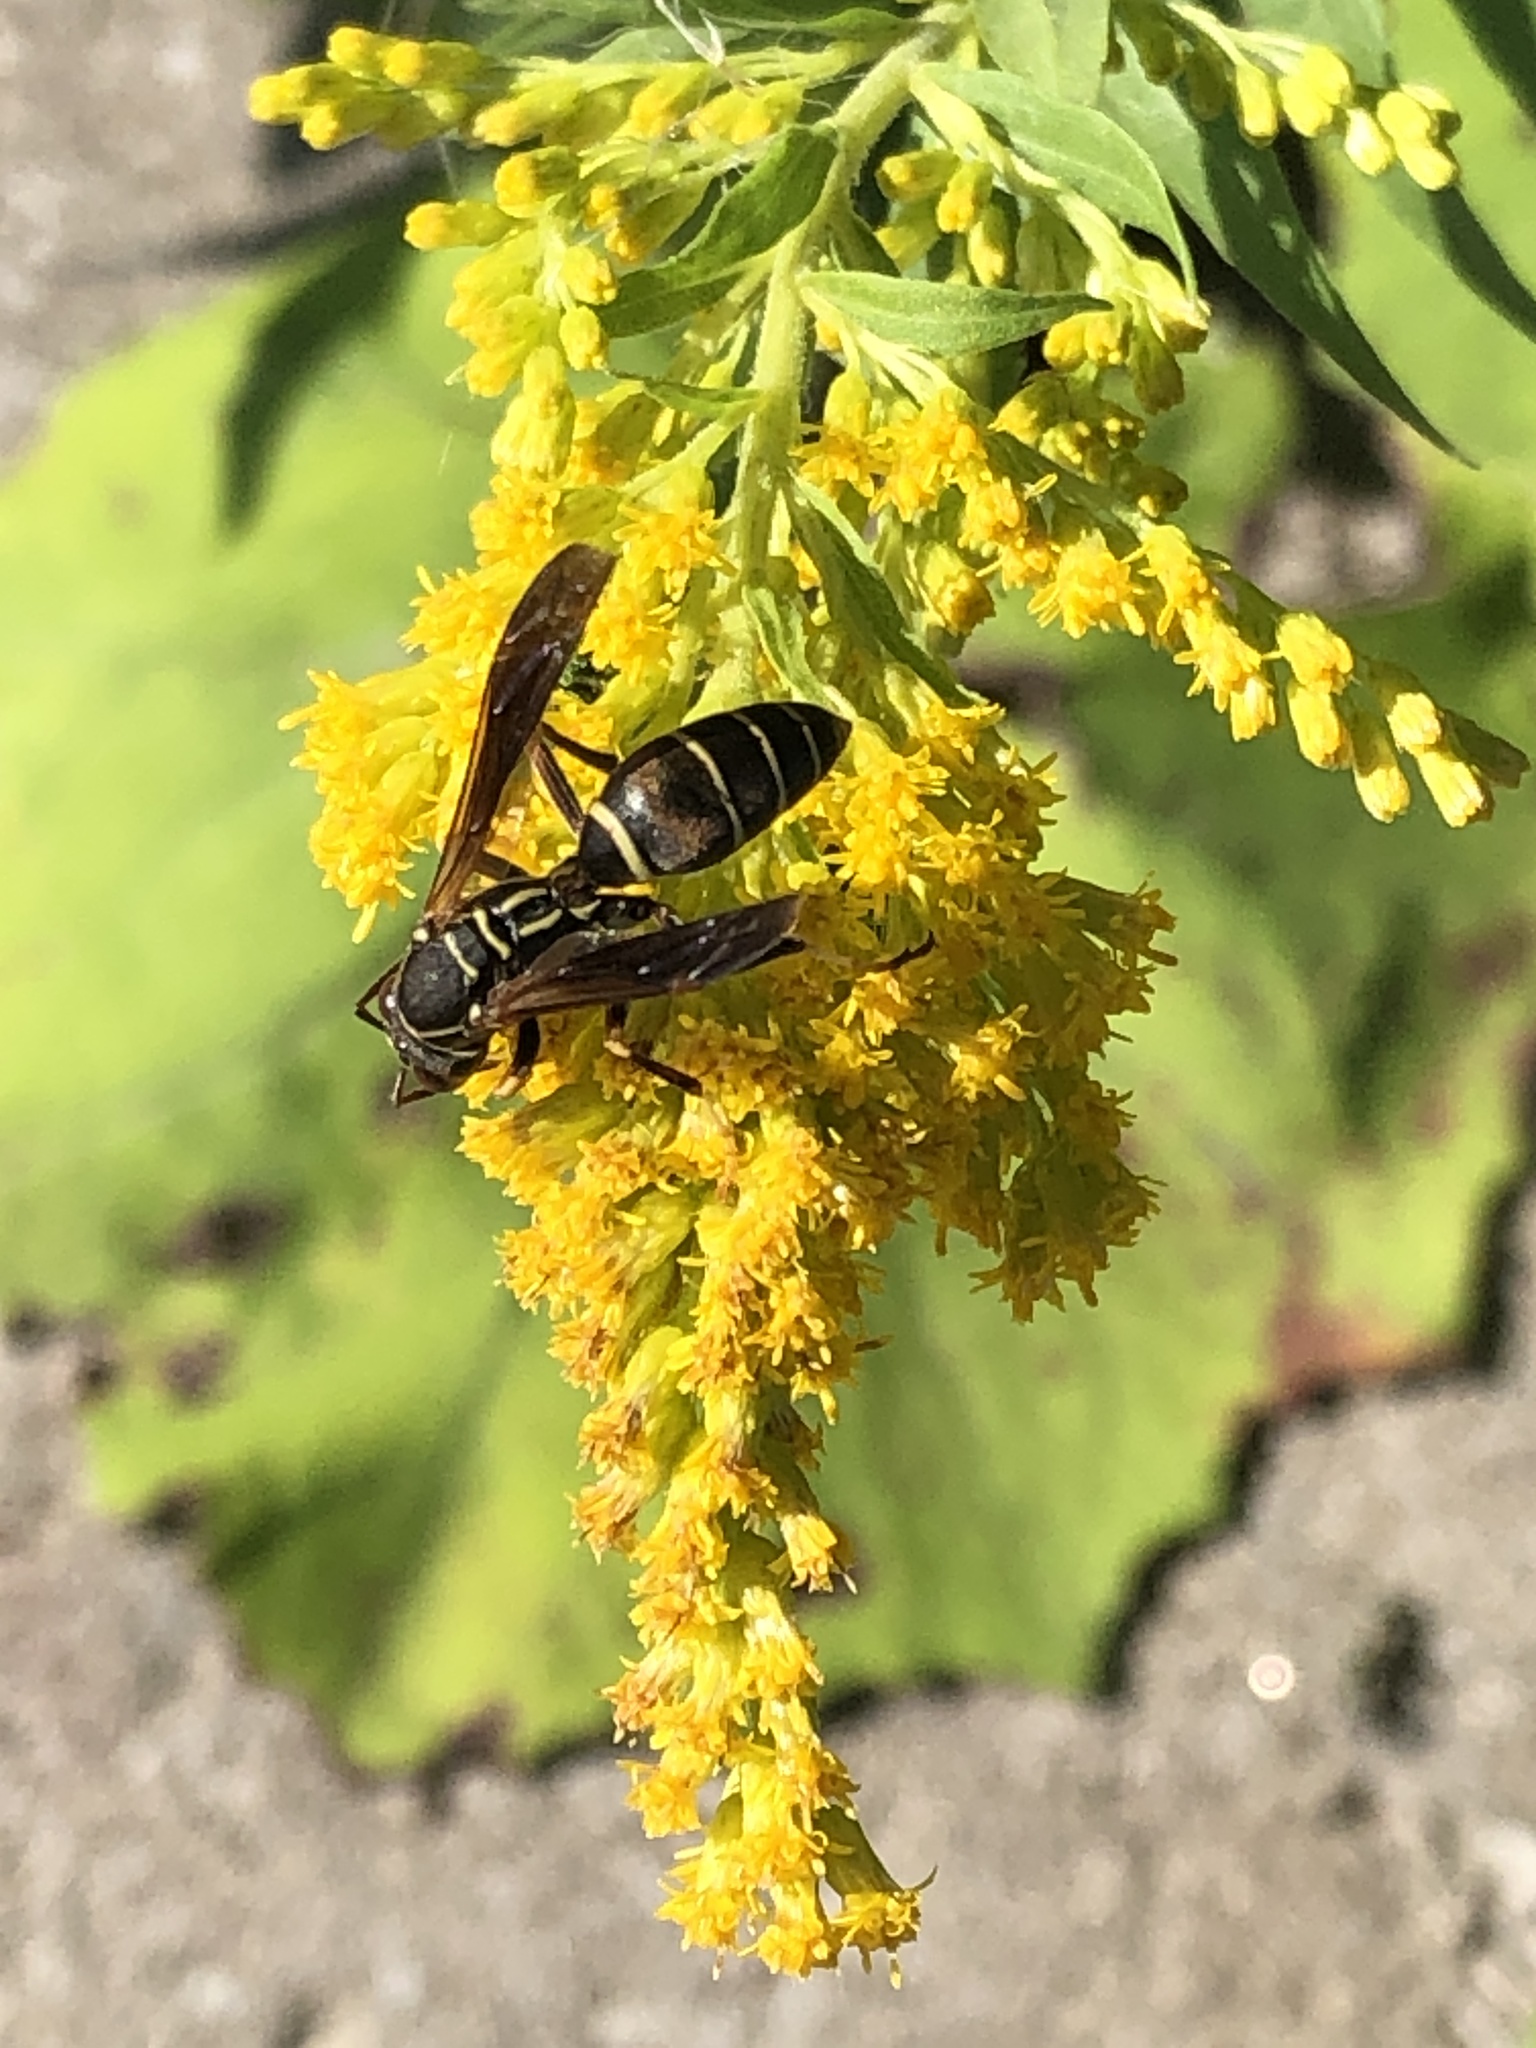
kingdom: Animalia
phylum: Arthropoda
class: Insecta
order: Hymenoptera
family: Eumenidae
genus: Polistes
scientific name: Polistes fuscatus
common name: Dark paper wasp
